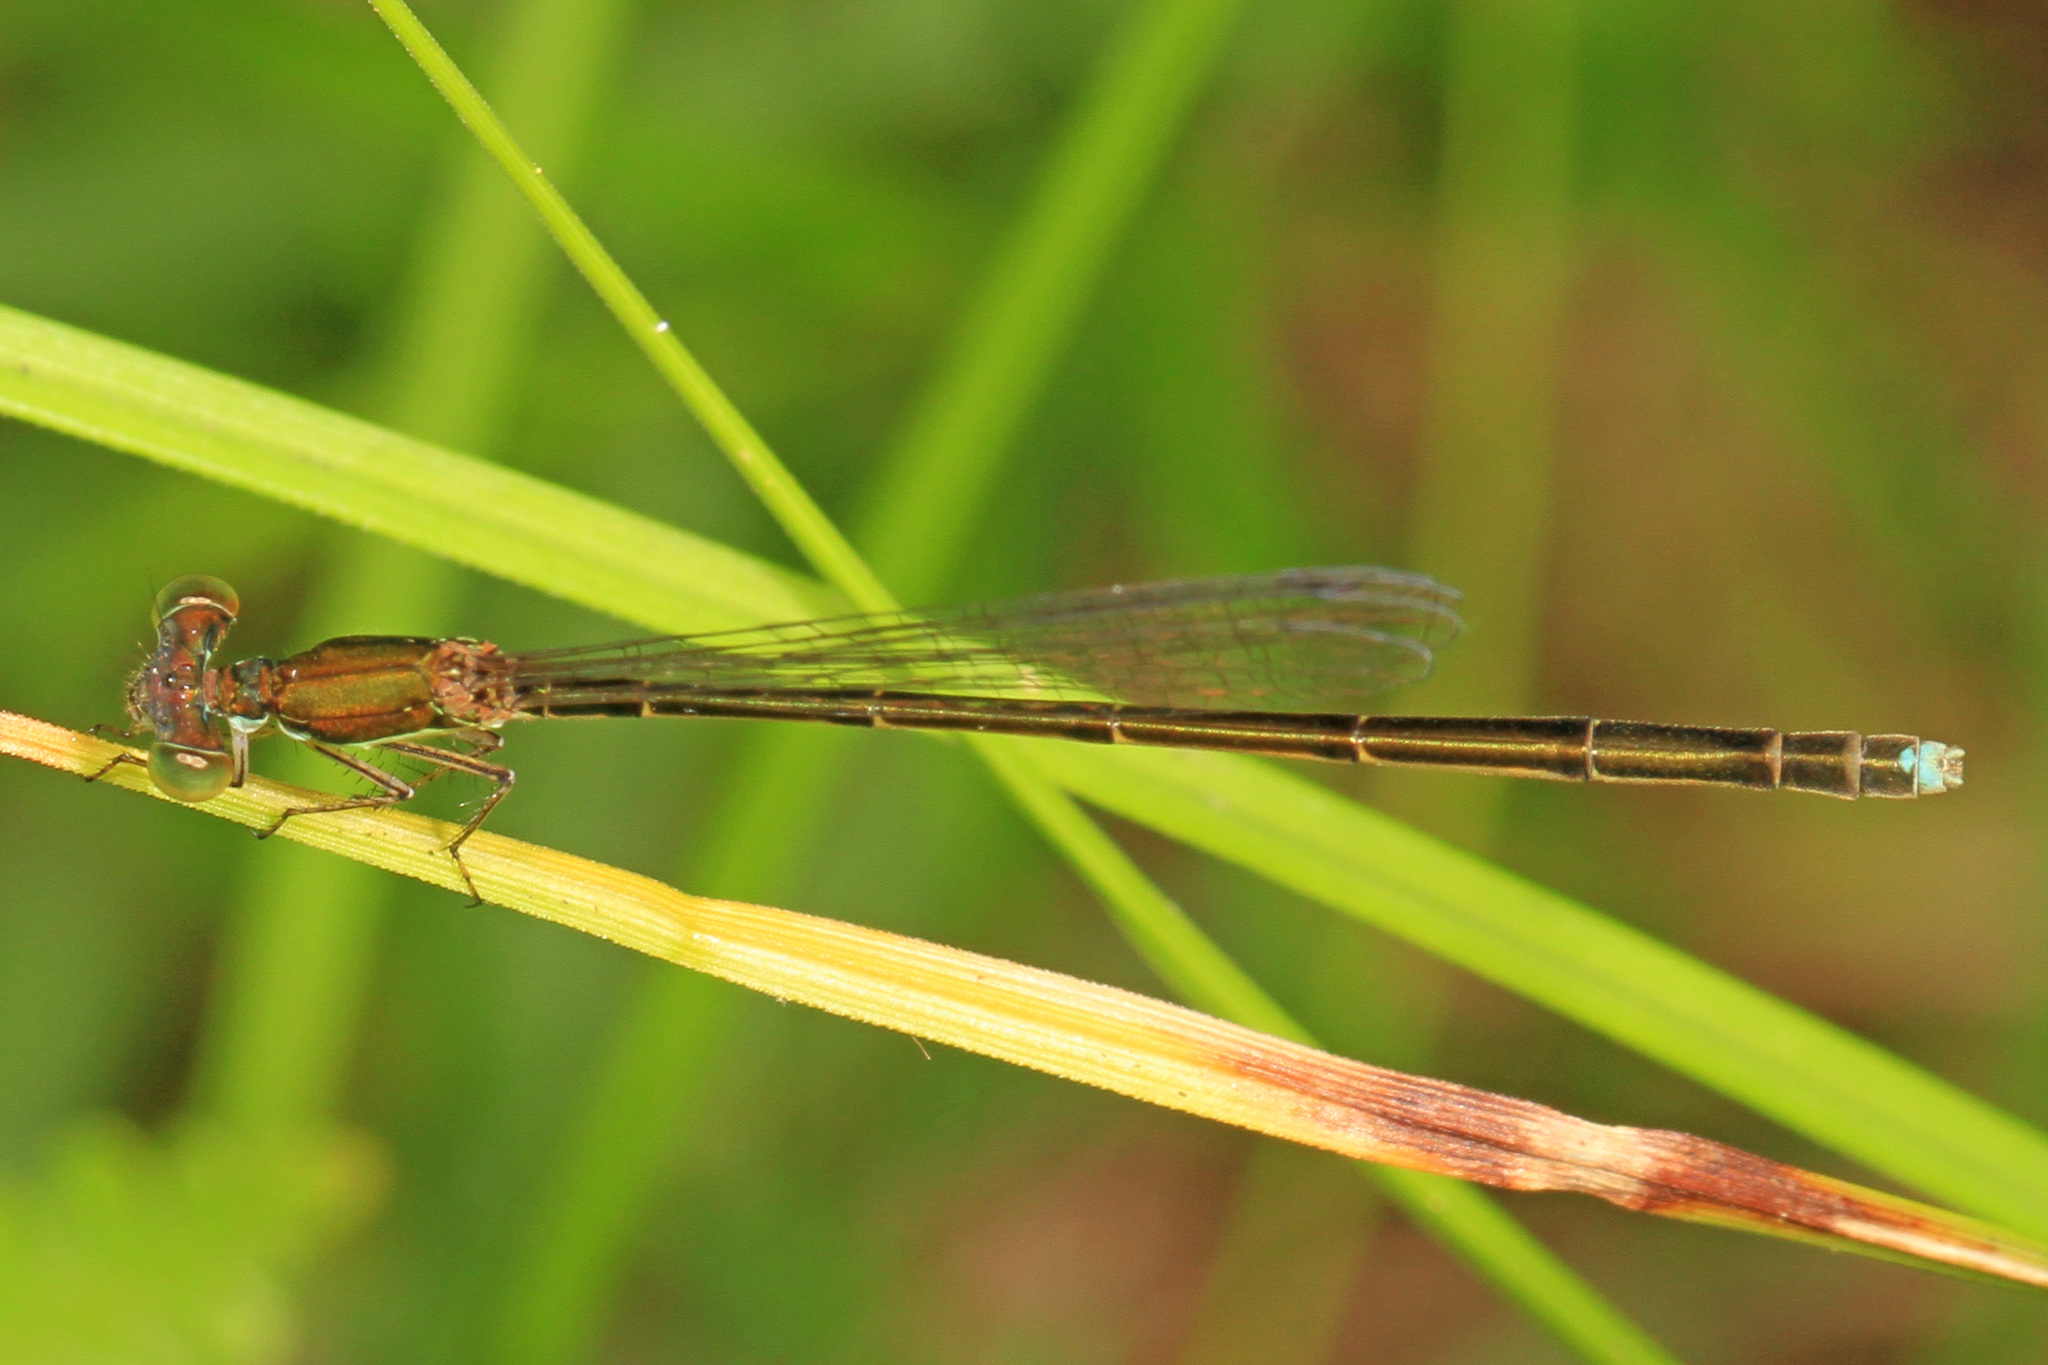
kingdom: Animalia
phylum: Arthropoda
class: Insecta
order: Odonata
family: Coenagrionidae
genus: Nehalennia
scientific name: Nehalennia integricollis
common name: Southern sprite
